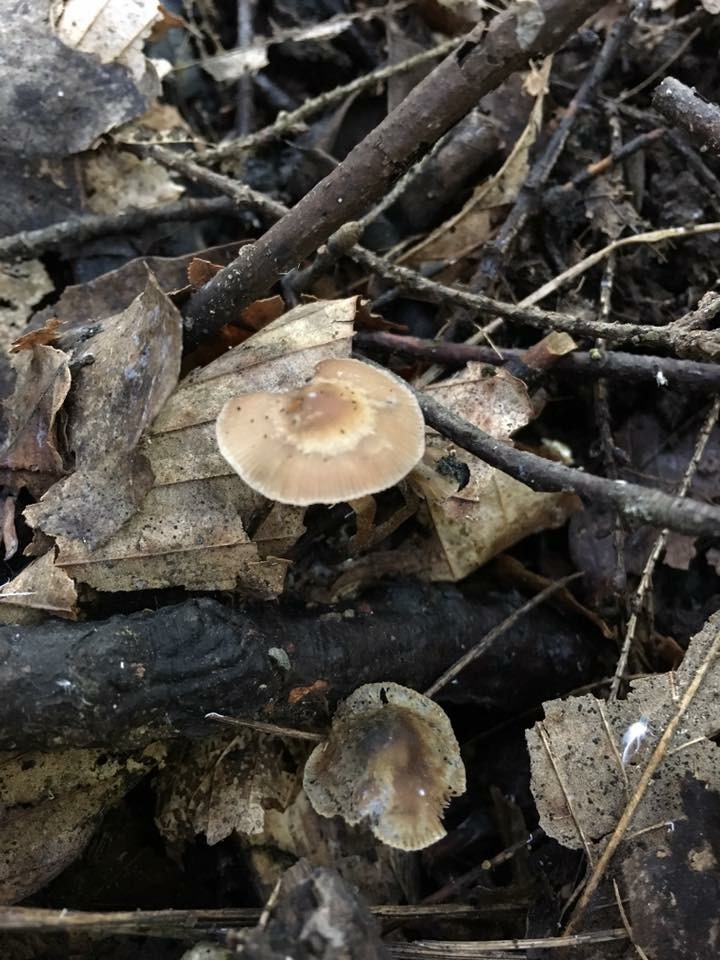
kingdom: Fungi
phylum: Basidiomycota
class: Agaricomycetes
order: Agaricales
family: Hymenogastraceae
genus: Psilocybe
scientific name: Psilocybe caerulipes
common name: Blue-foot
